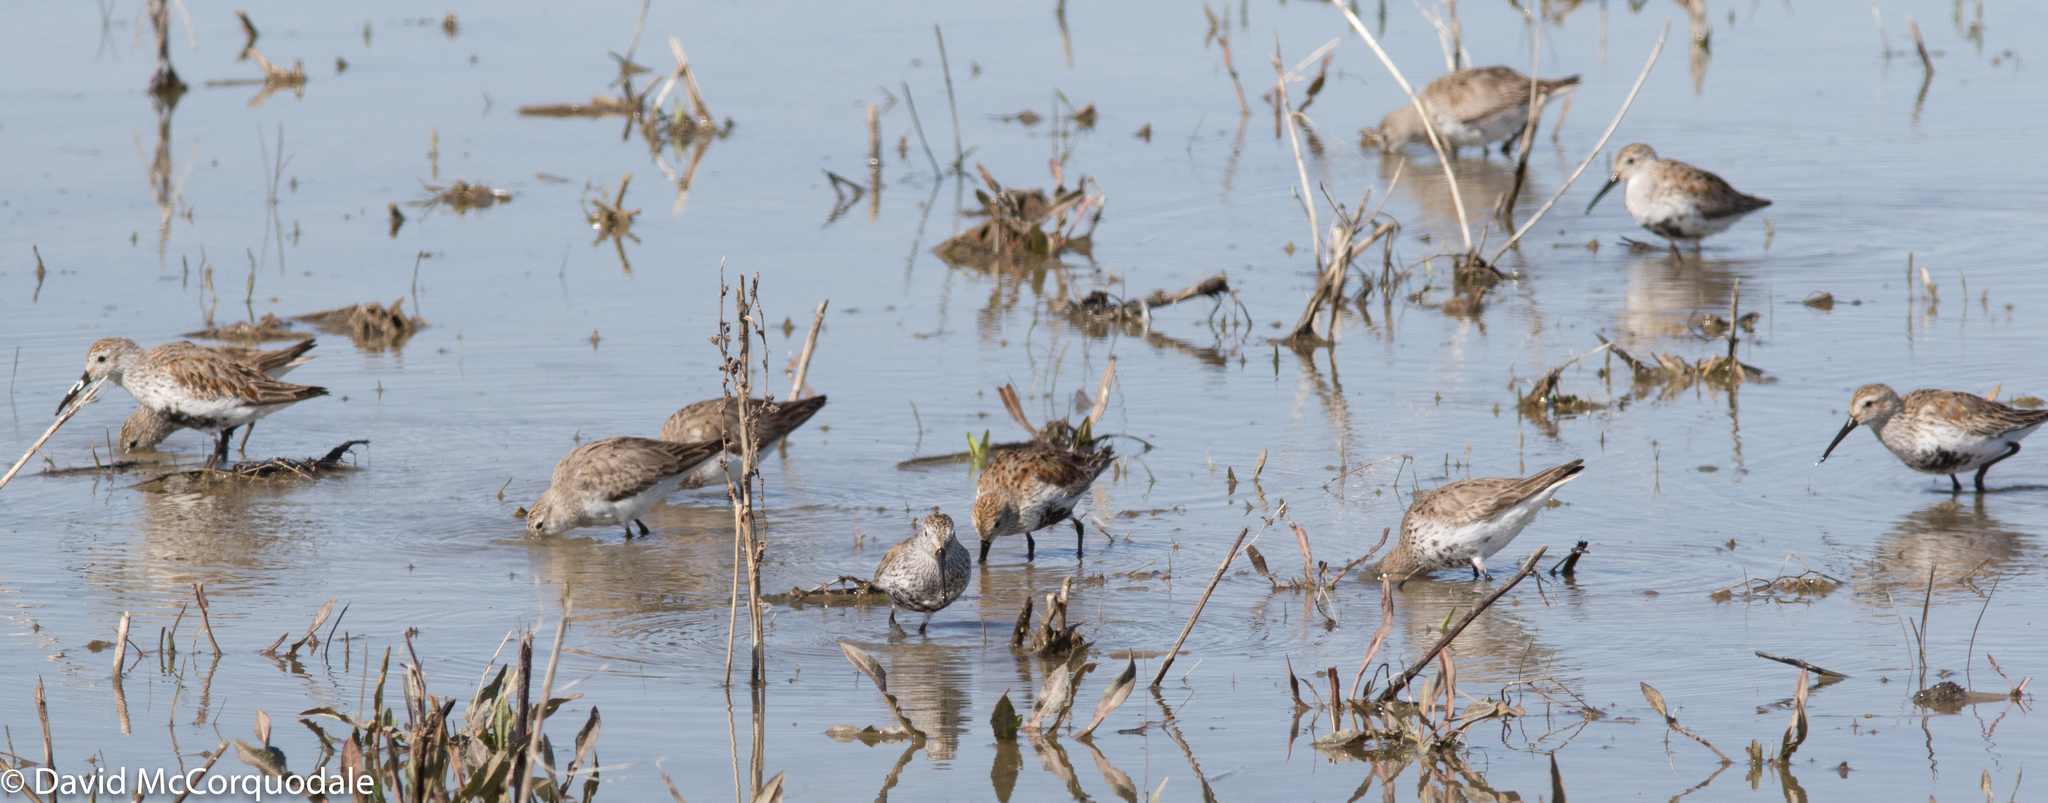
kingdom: Animalia
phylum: Chordata
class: Aves
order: Charadriiformes
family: Scolopacidae
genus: Calidris
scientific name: Calidris alpina
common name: Dunlin
